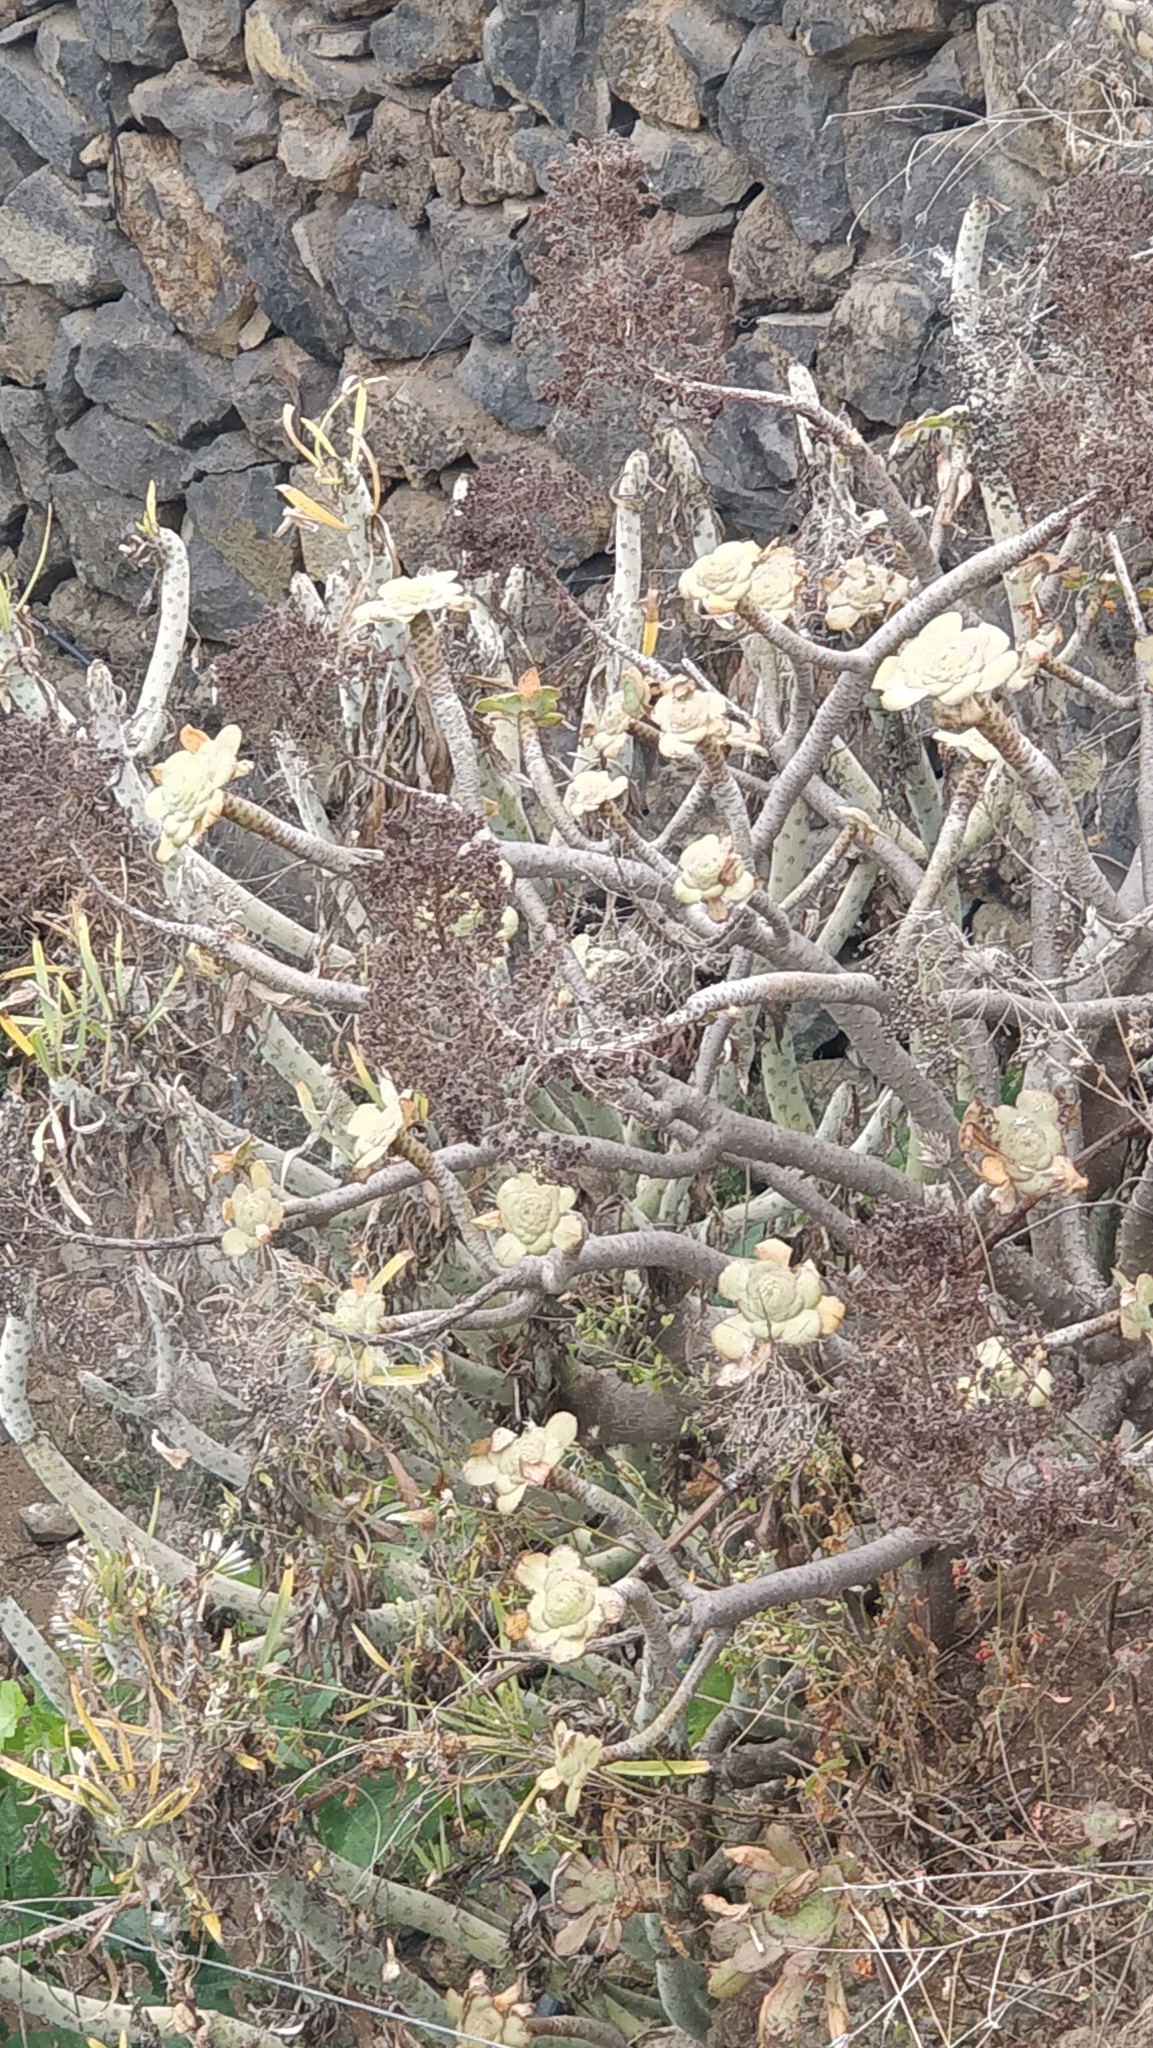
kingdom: Plantae
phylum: Tracheophyta
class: Magnoliopsida
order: Saxifragales
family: Crassulaceae
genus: Aeonium
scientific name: Aeonium arboreum
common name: Tree aeonium
